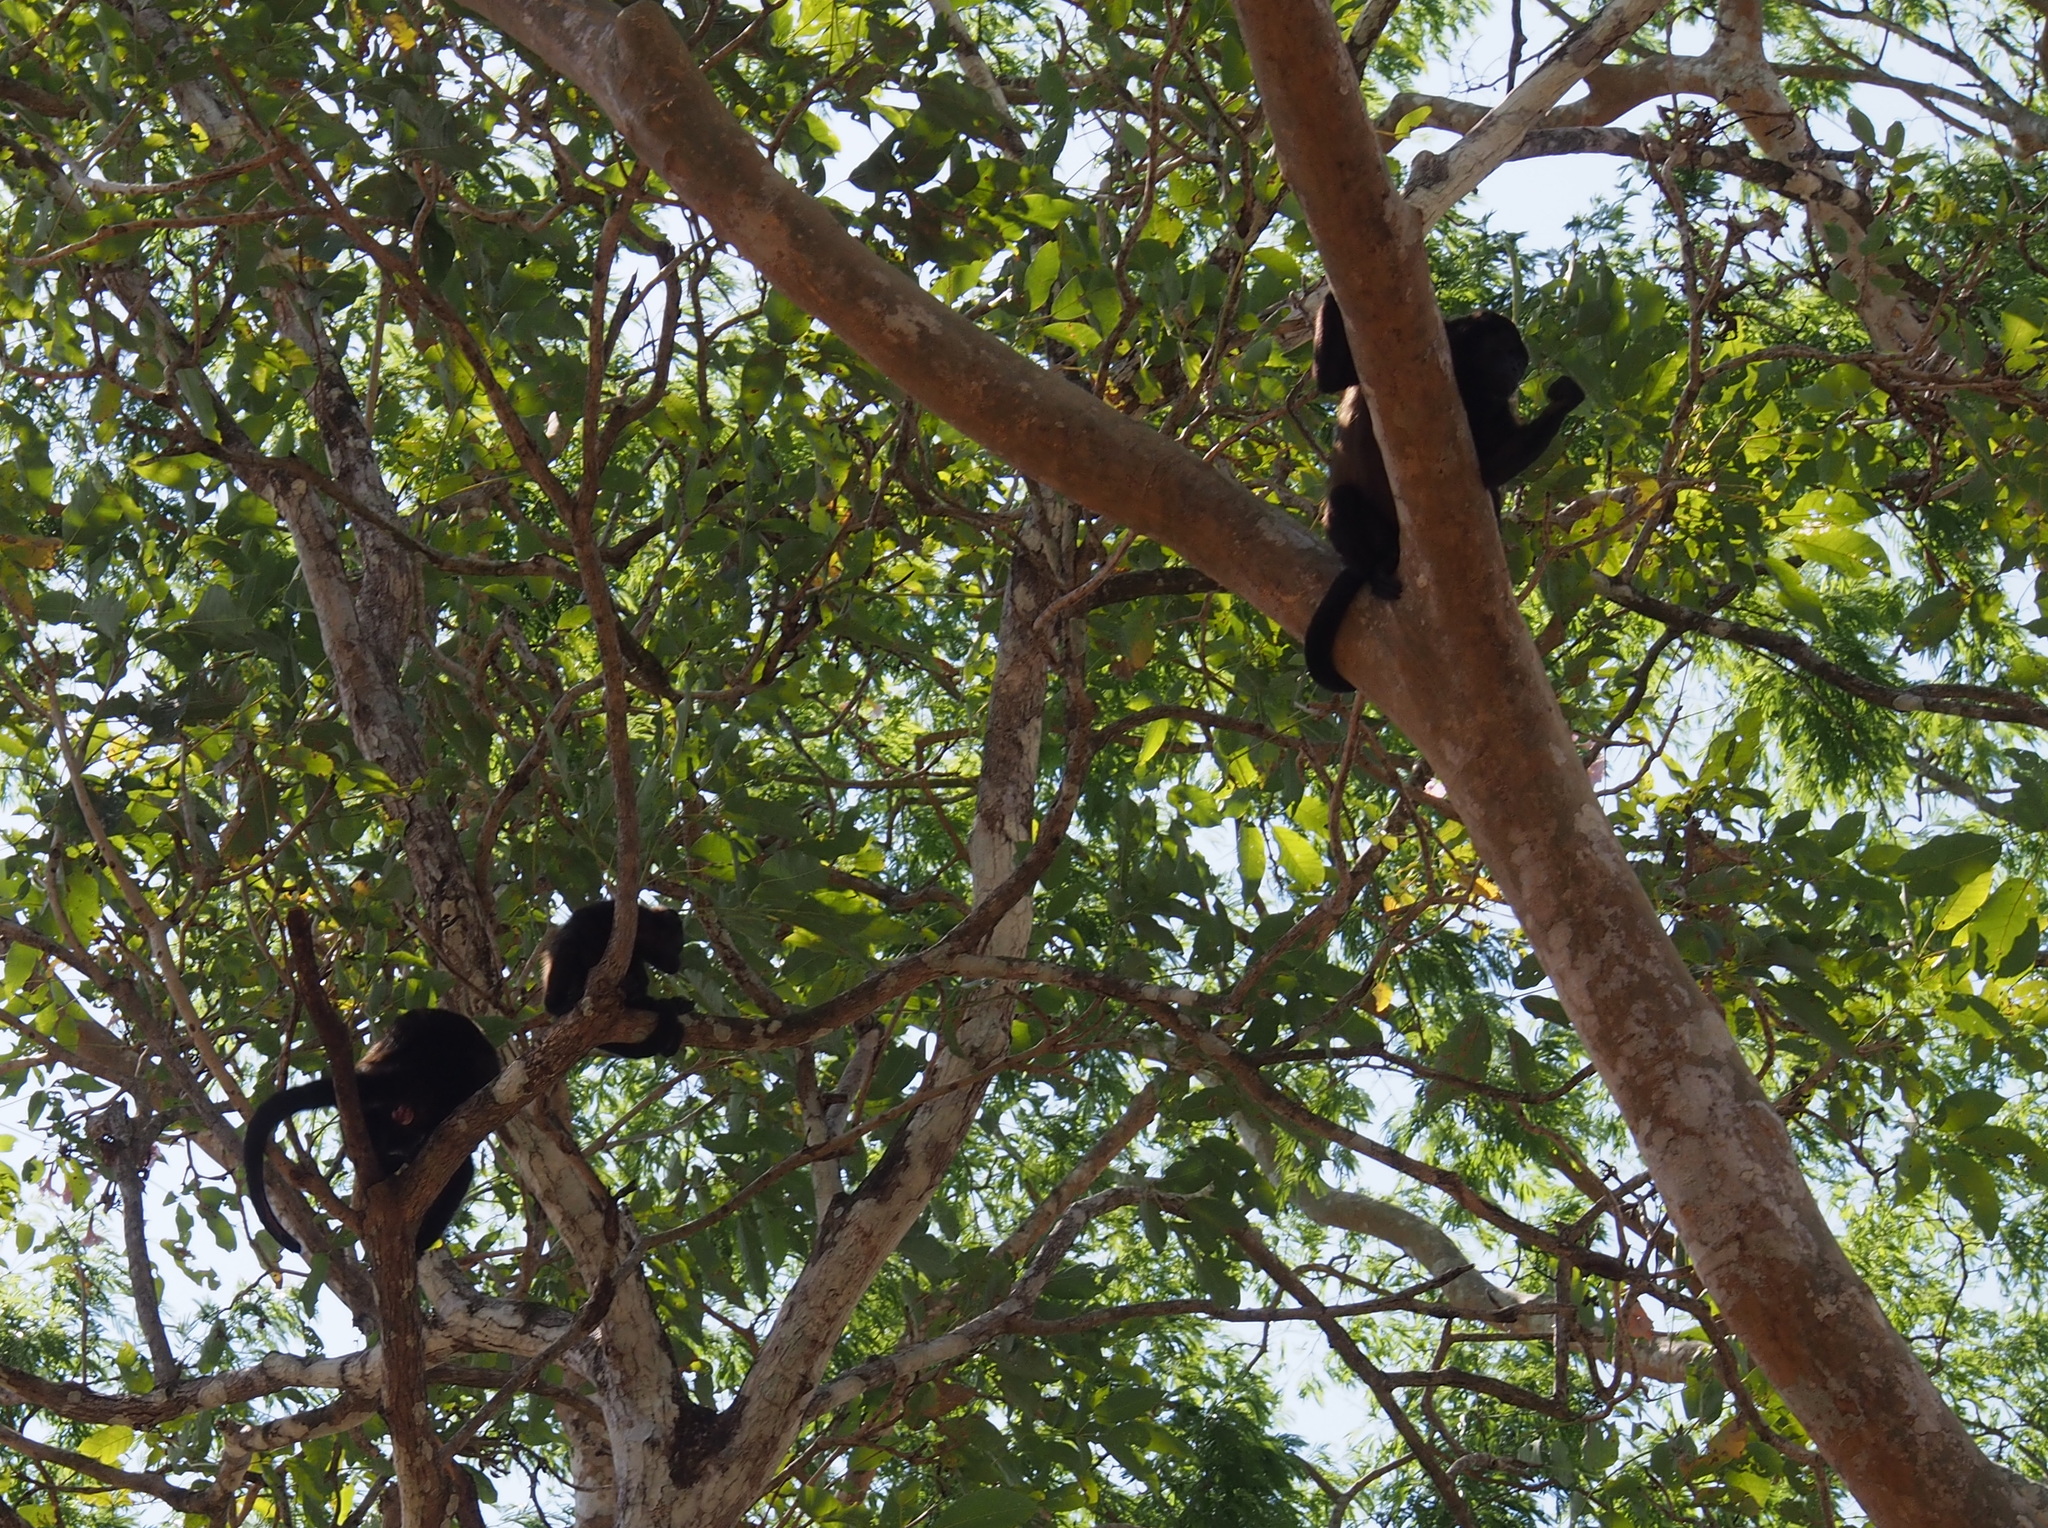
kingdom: Animalia
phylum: Chordata
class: Mammalia
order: Primates
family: Atelidae
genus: Alouatta
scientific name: Alouatta palliata
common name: Mantled howler
